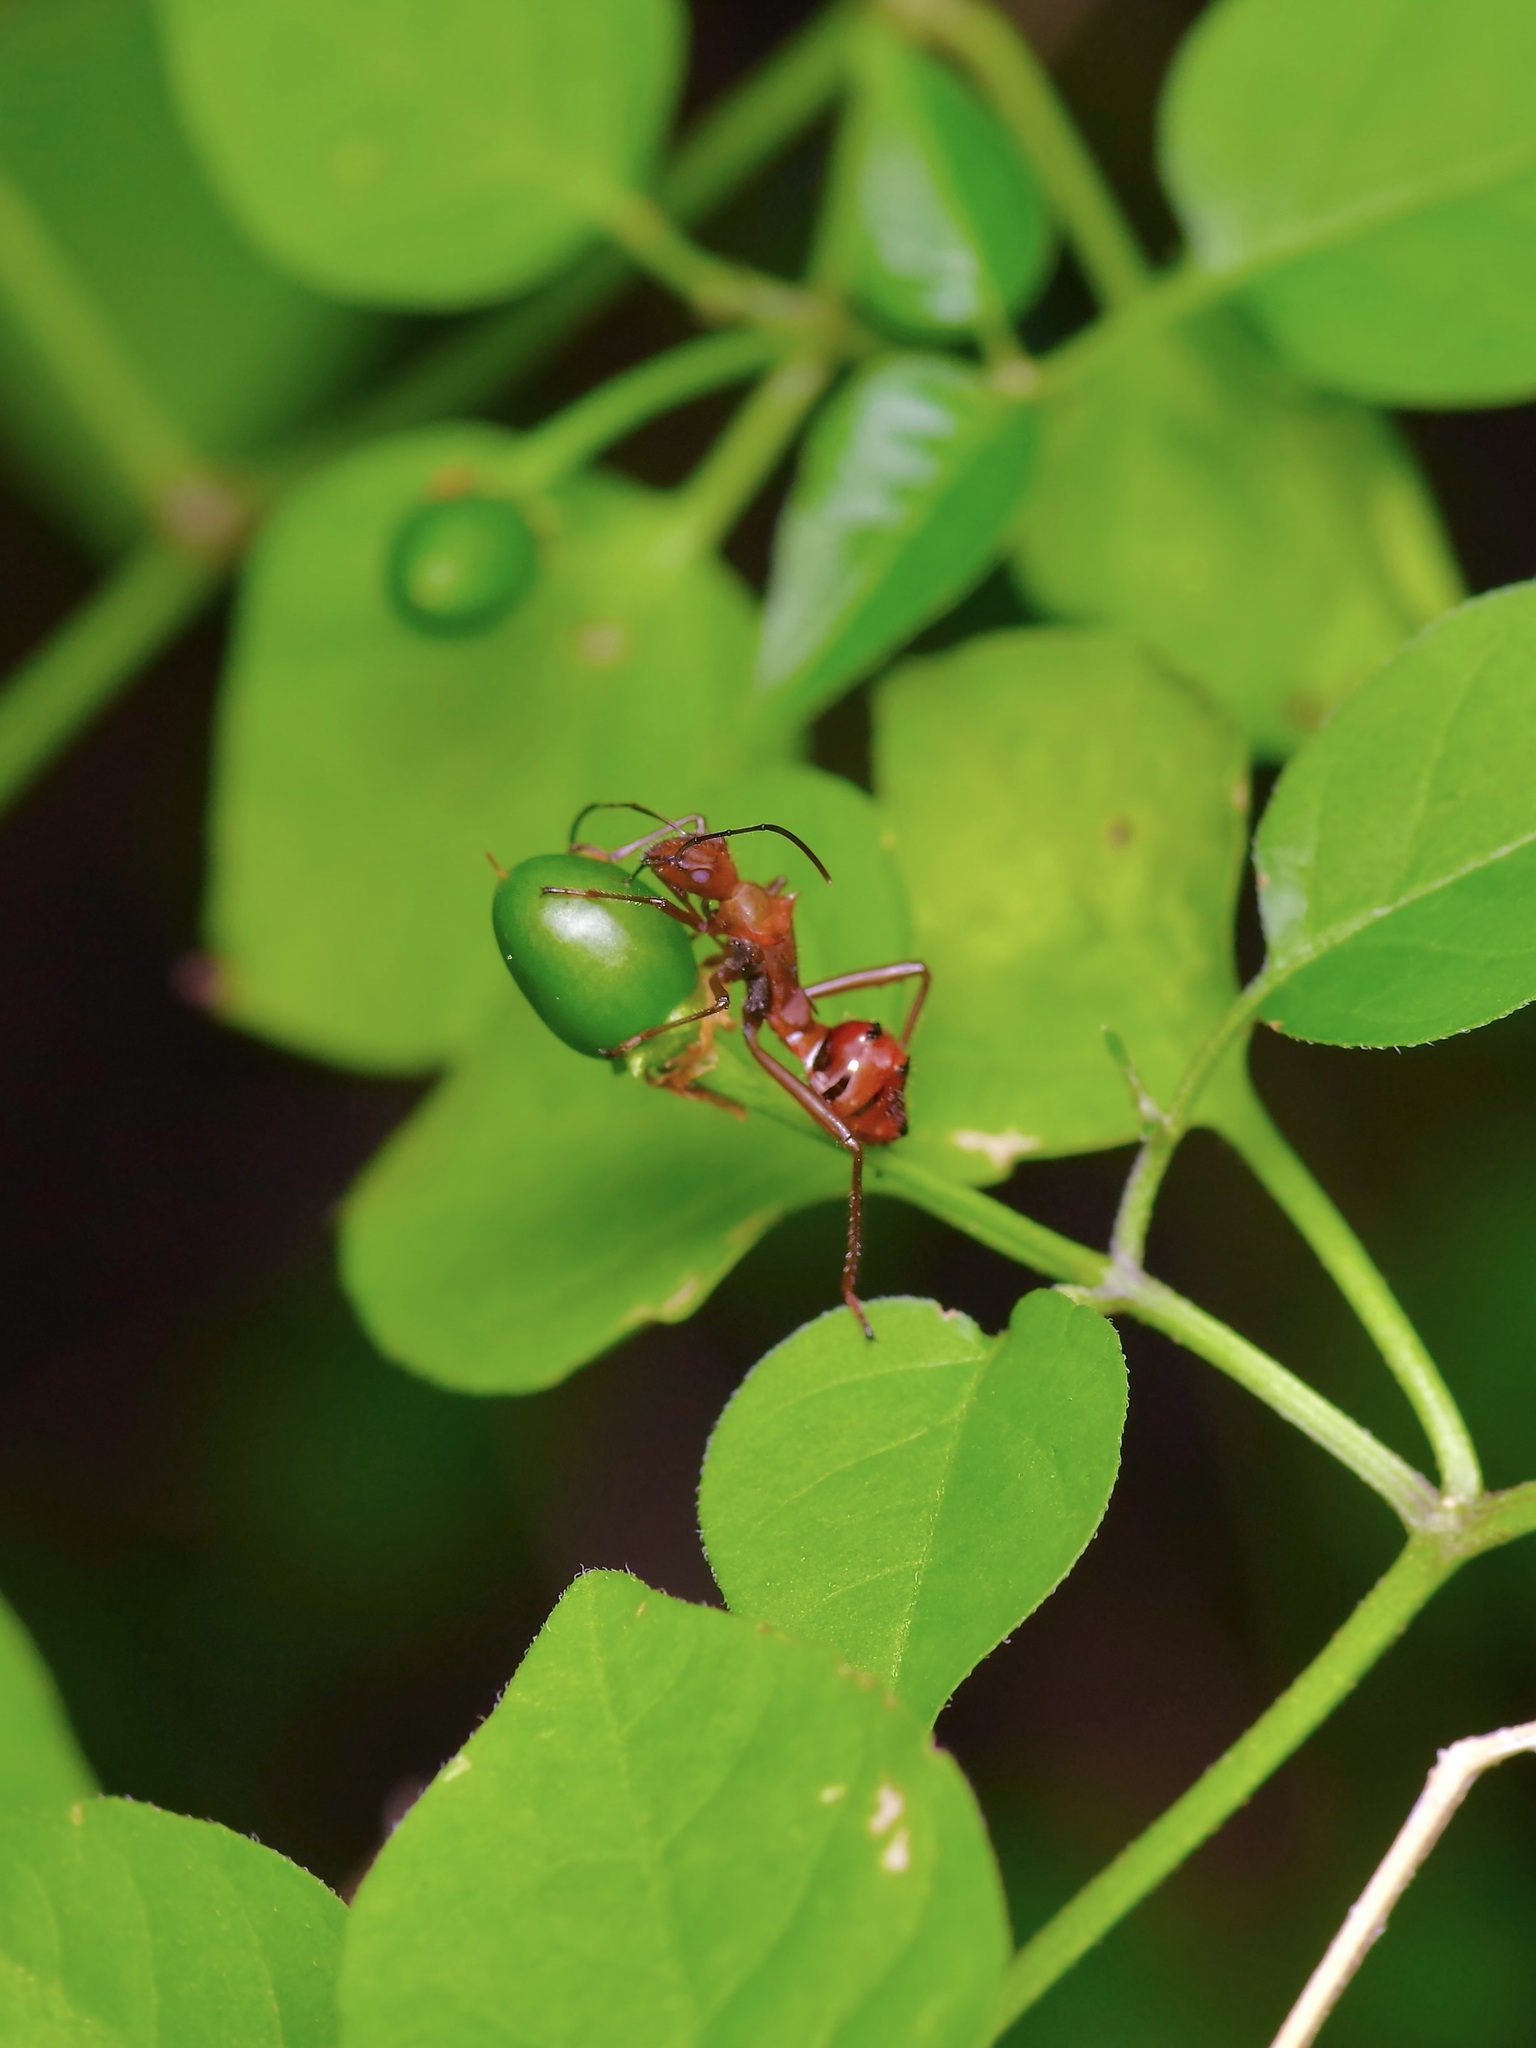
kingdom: Animalia
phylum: Arthropoda
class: Insecta
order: Hemiptera
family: Alydidae
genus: Hyalymenus
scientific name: Hyalymenus tarsatus
